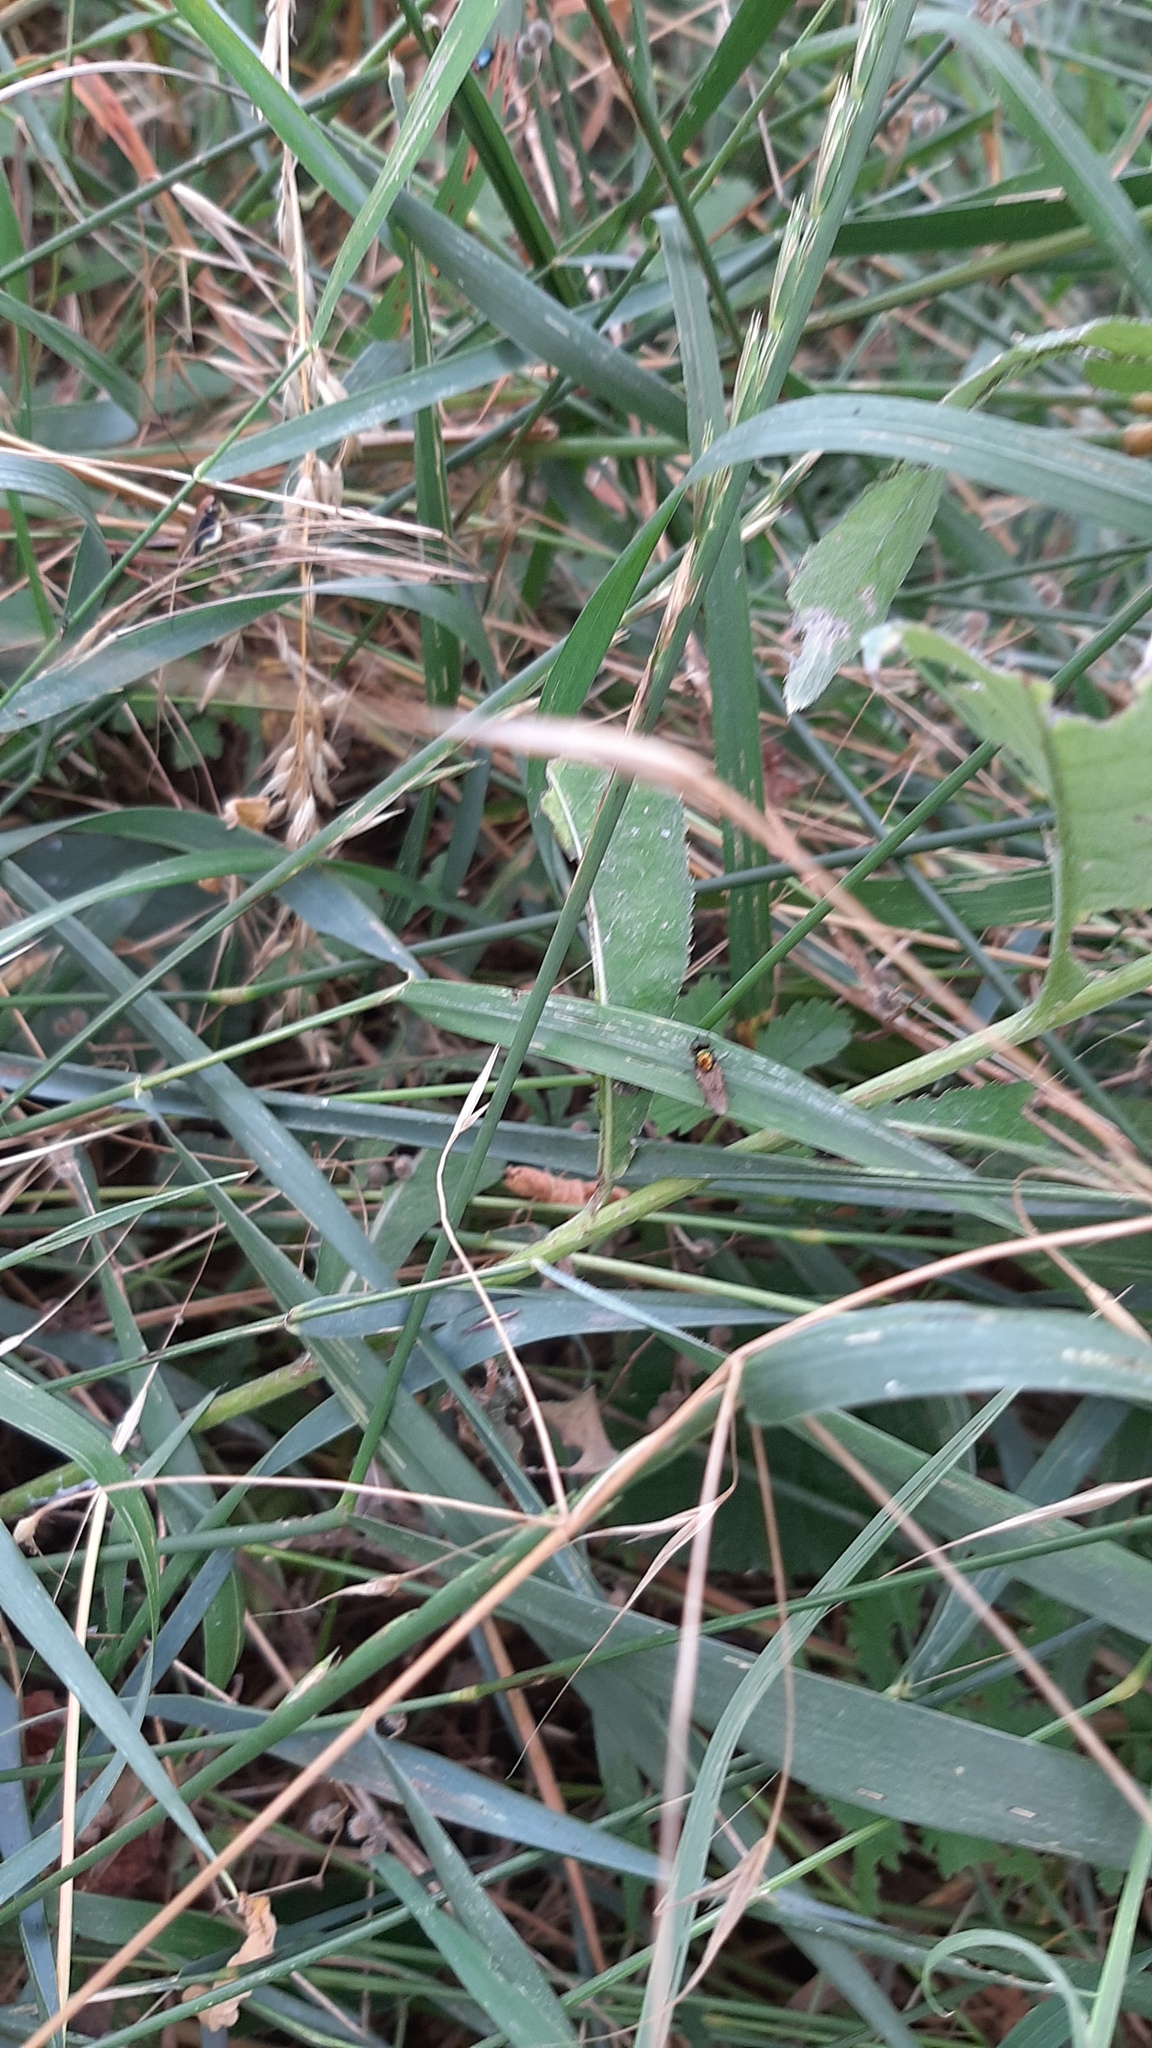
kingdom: Animalia
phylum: Arthropoda
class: Insecta
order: Diptera
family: Stratiomyidae
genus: Chloromyia
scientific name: Chloromyia formosa
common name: Soldier fly
